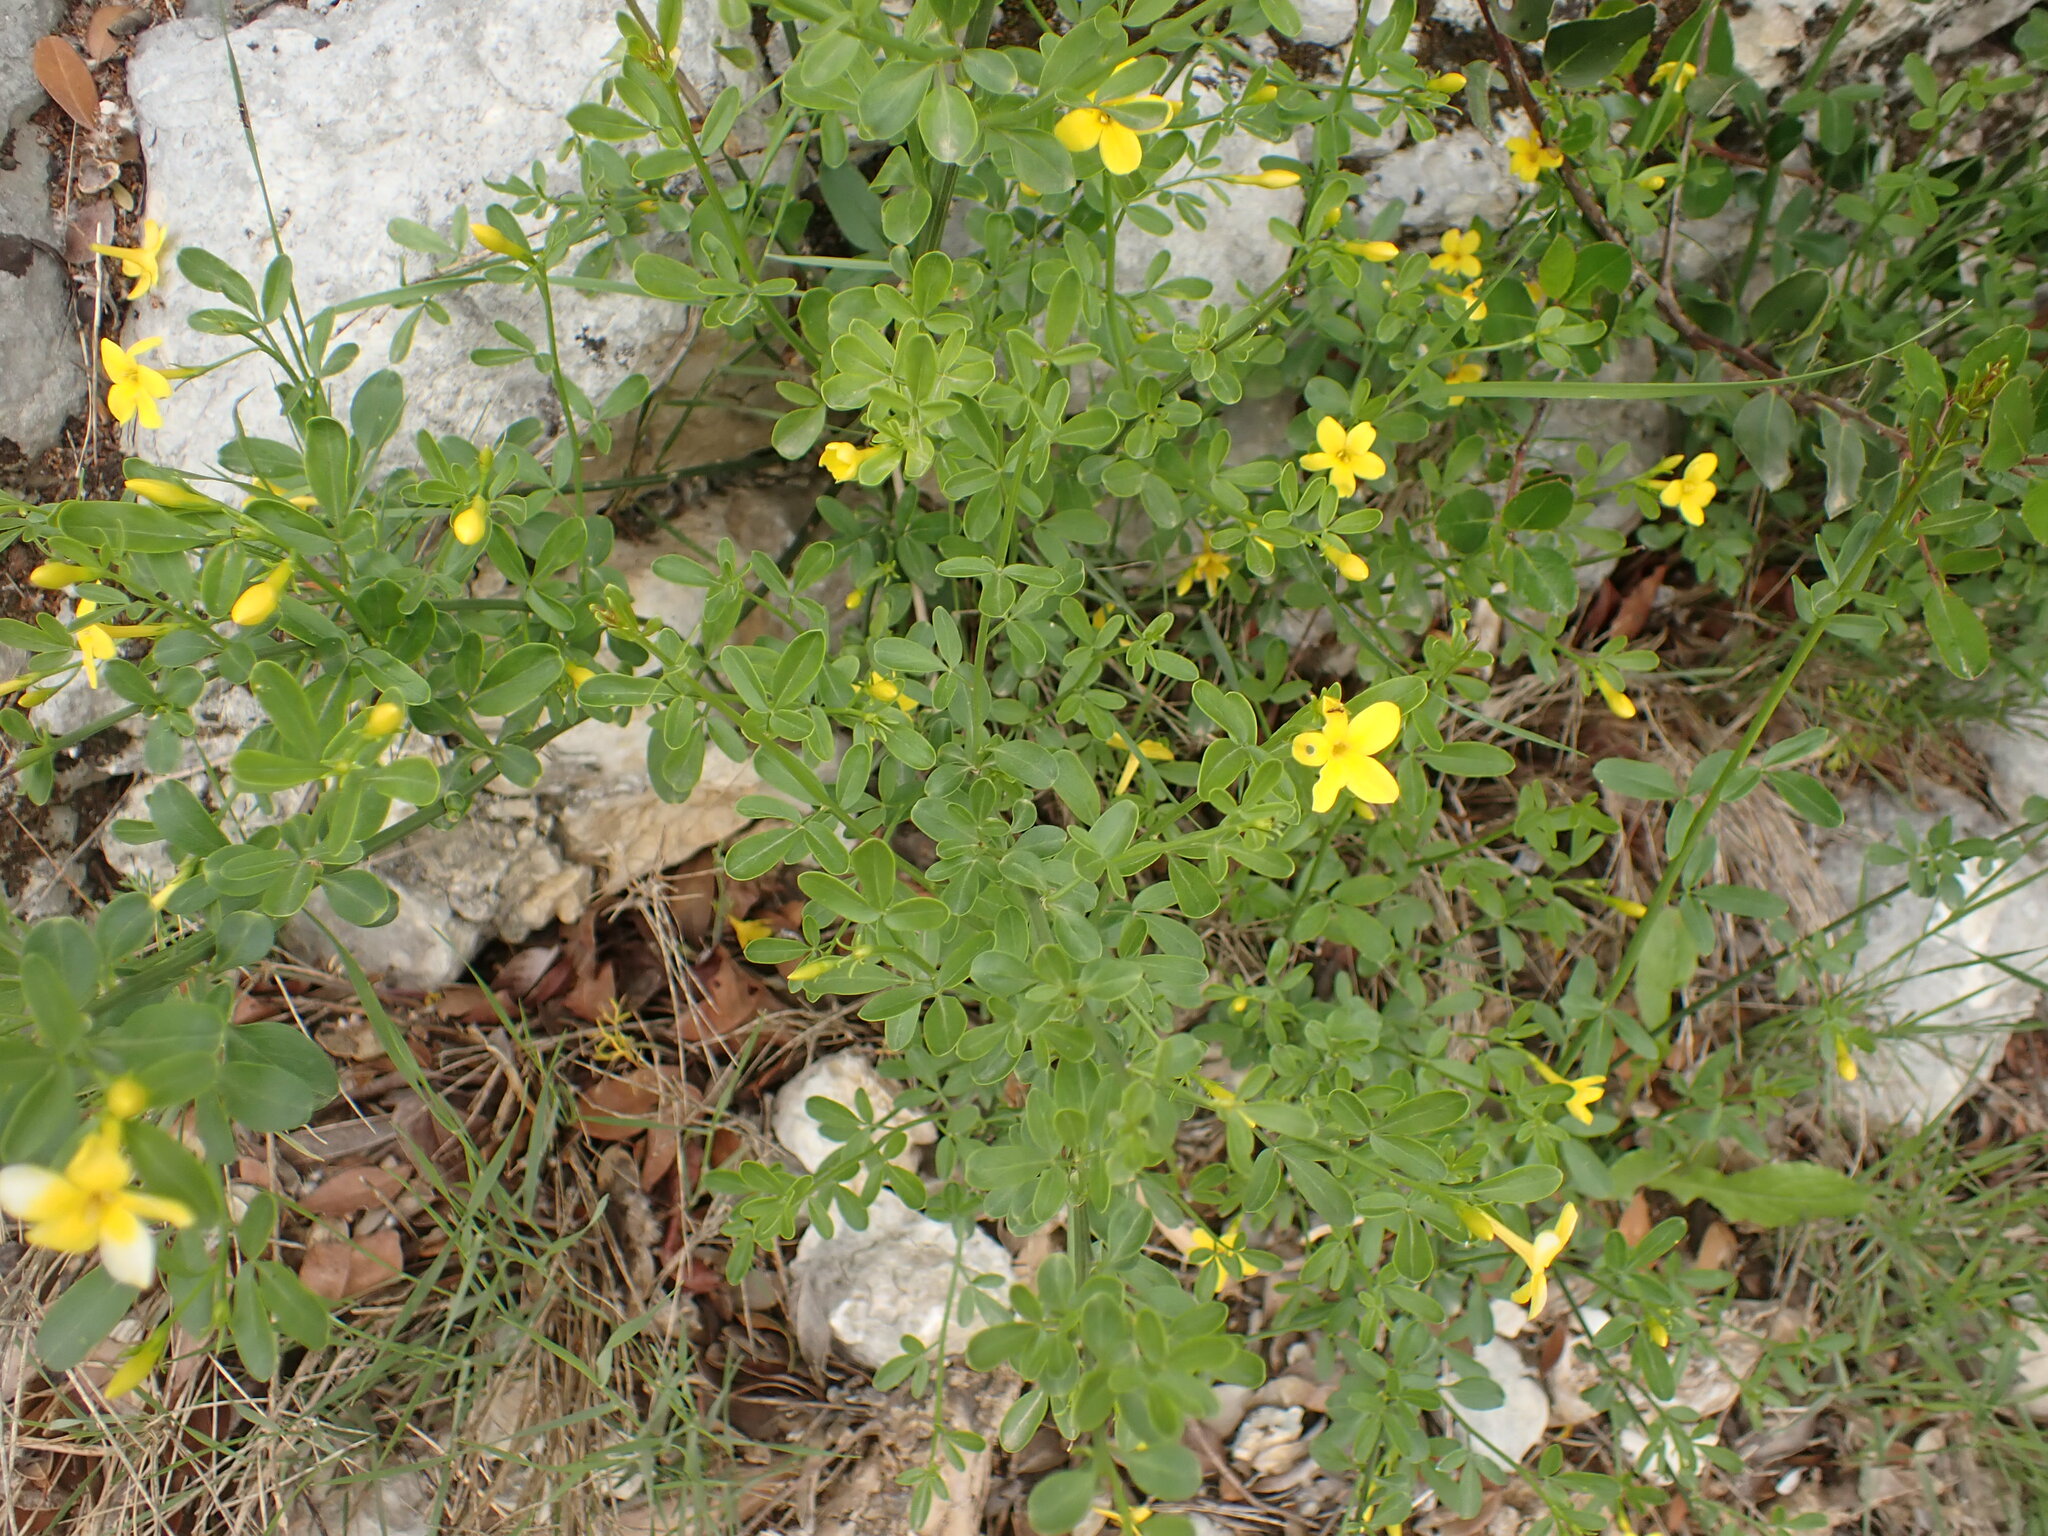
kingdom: Plantae
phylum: Tracheophyta
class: Magnoliopsida
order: Lamiales
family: Oleaceae
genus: Chrysojasminum
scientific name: Chrysojasminum fruticans
